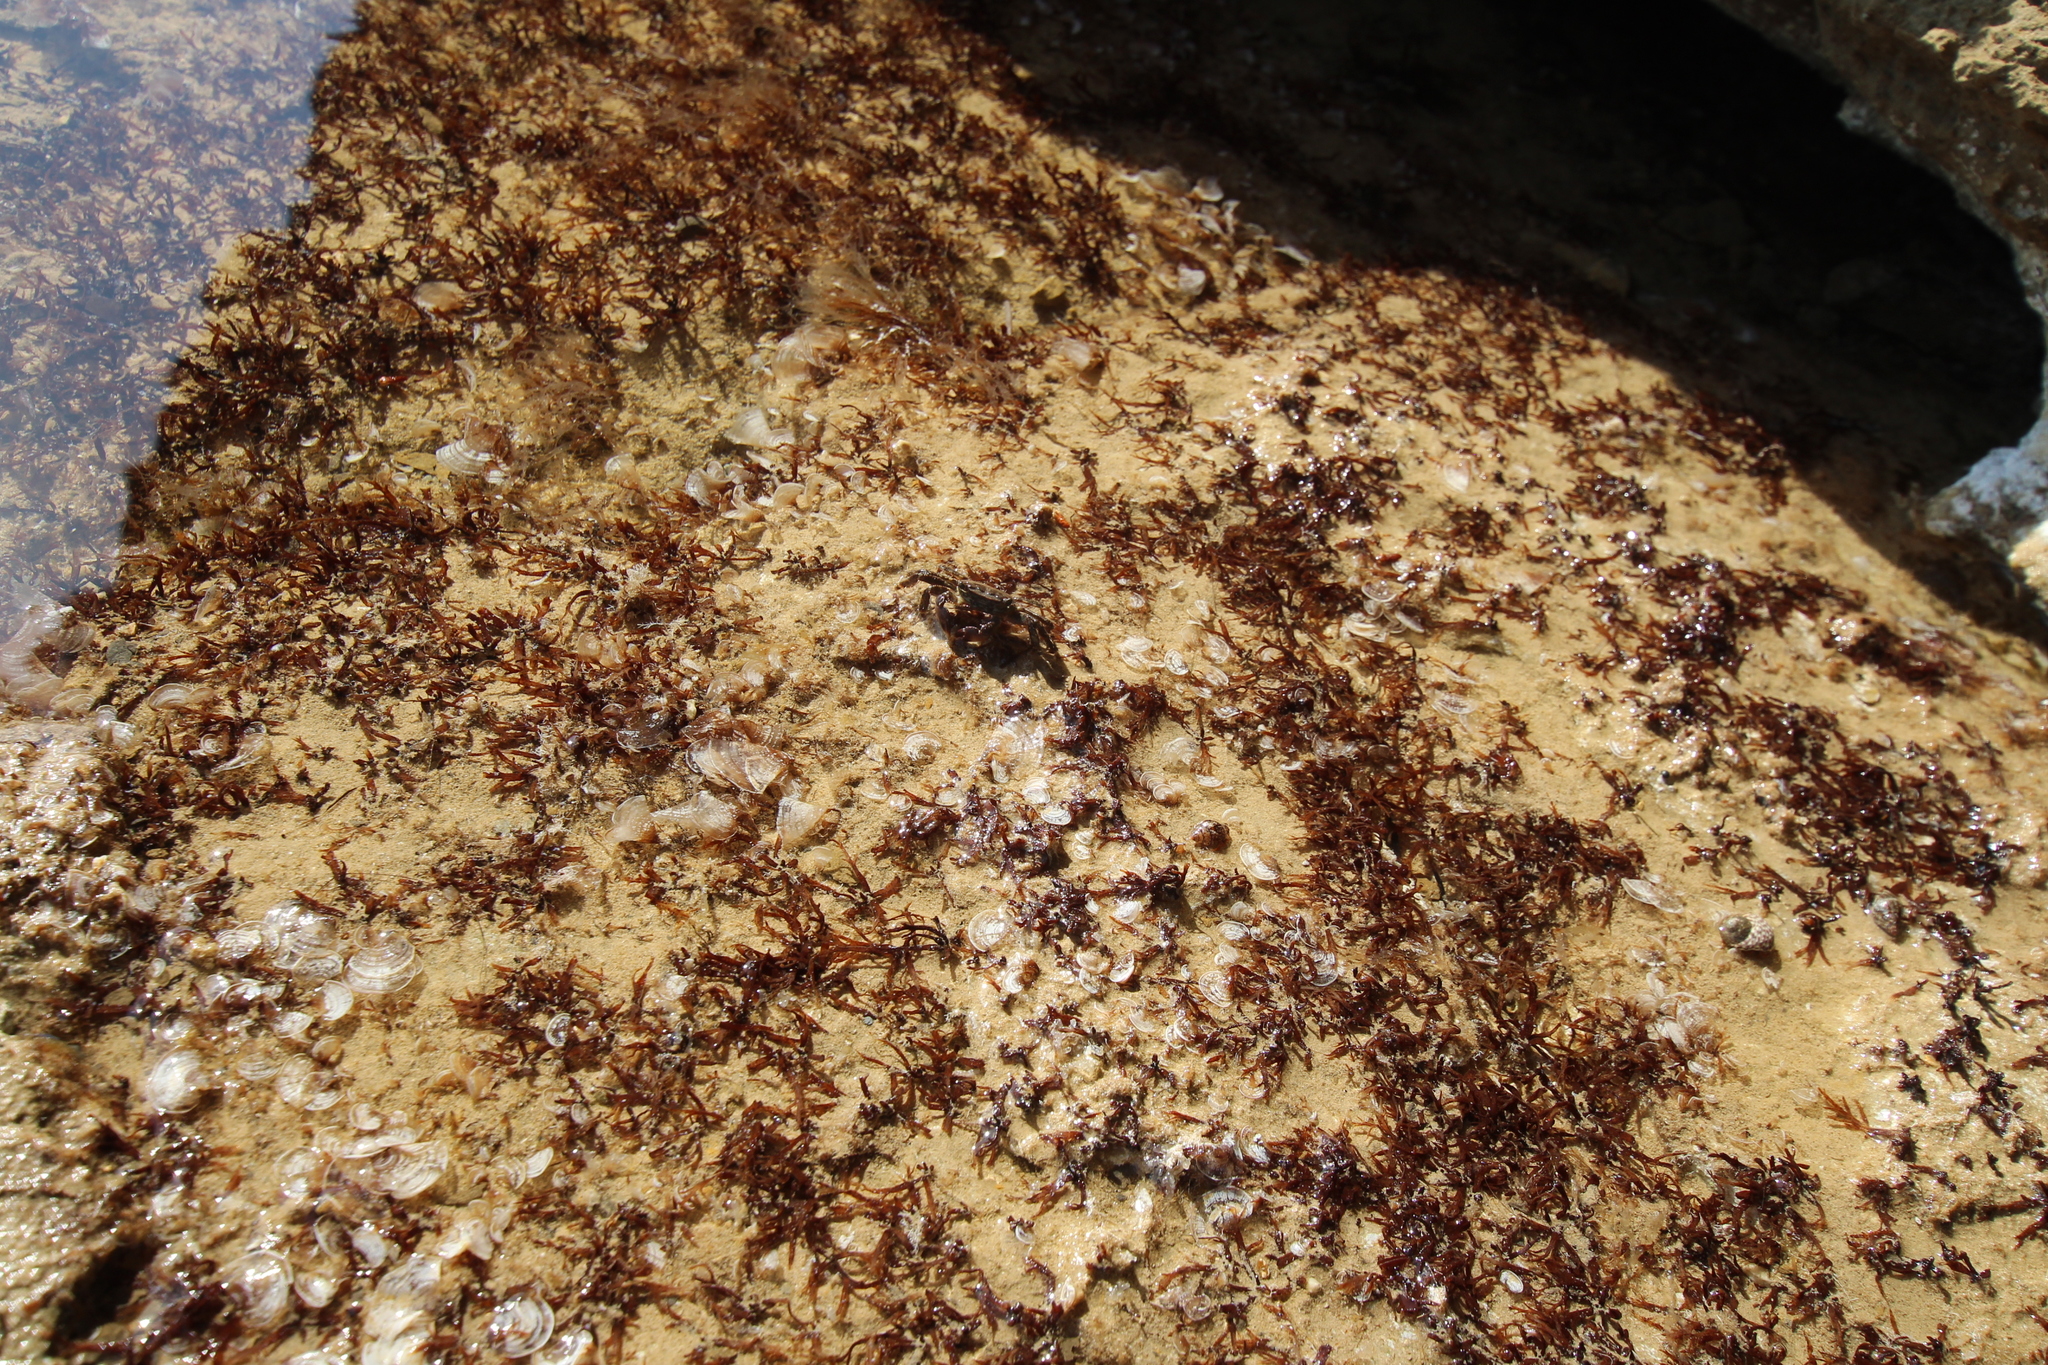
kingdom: Animalia
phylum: Arthropoda
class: Malacostraca
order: Decapoda
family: Grapsidae
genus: Pachygrapsus
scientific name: Pachygrapsus marmoratus
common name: Marbled rock crab
